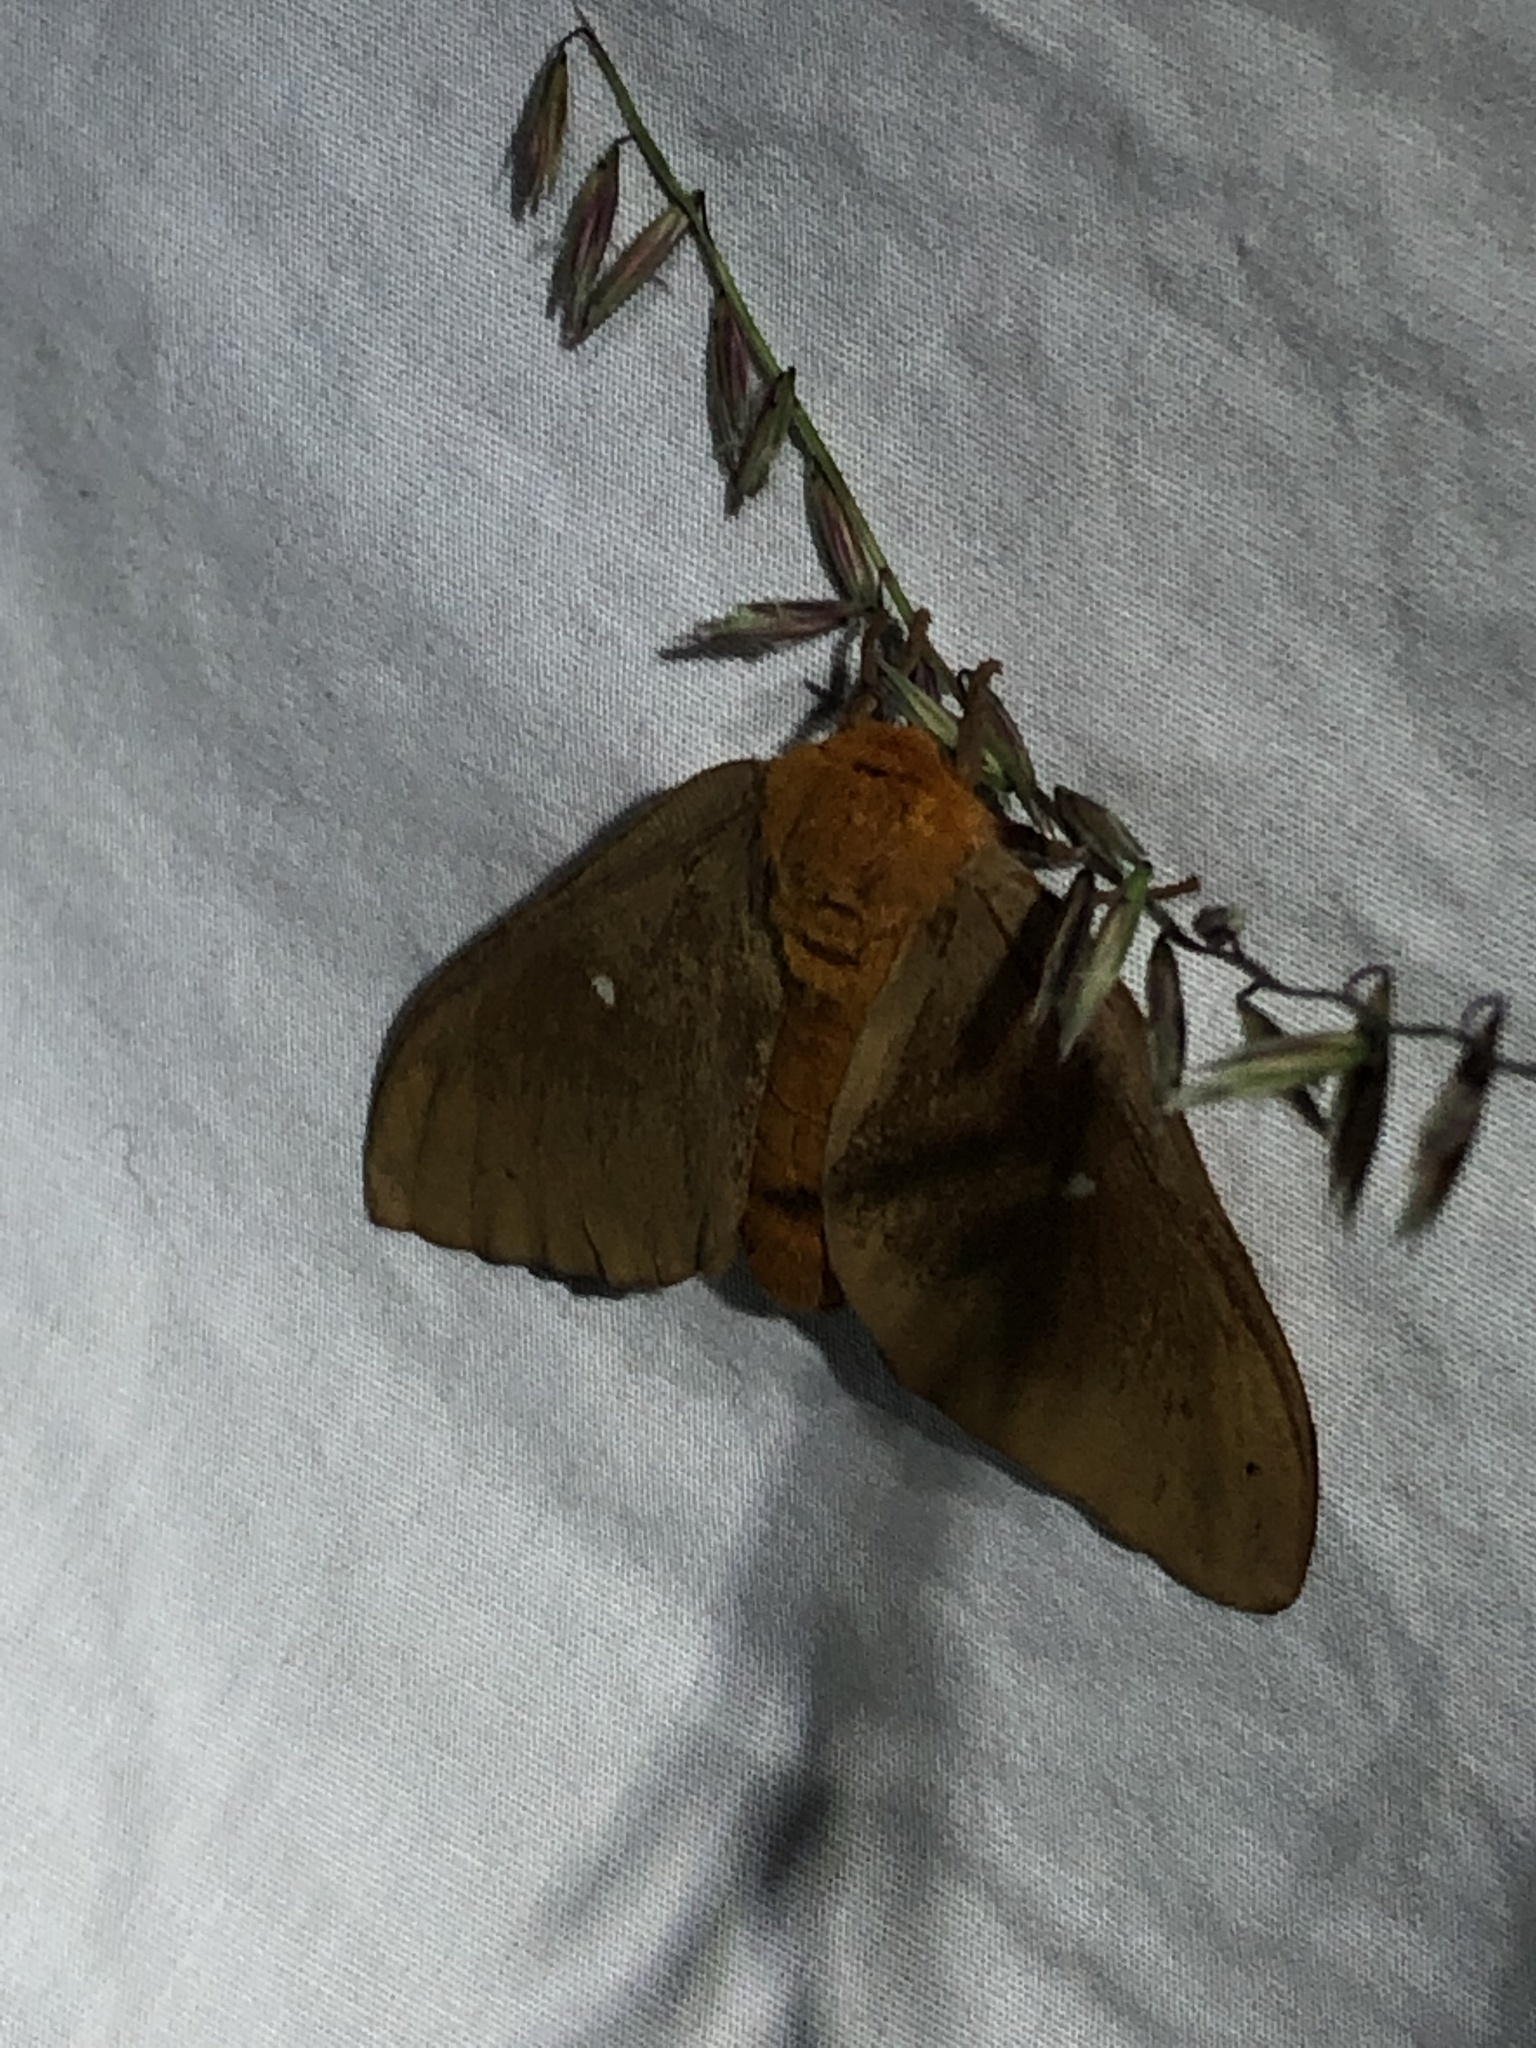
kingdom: Animalia
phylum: Arthropoda
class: Insecta
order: Lepidoptera
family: Saturniidae
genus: Anisota
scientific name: Anisota oslari
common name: Oslar's oakworm moth
